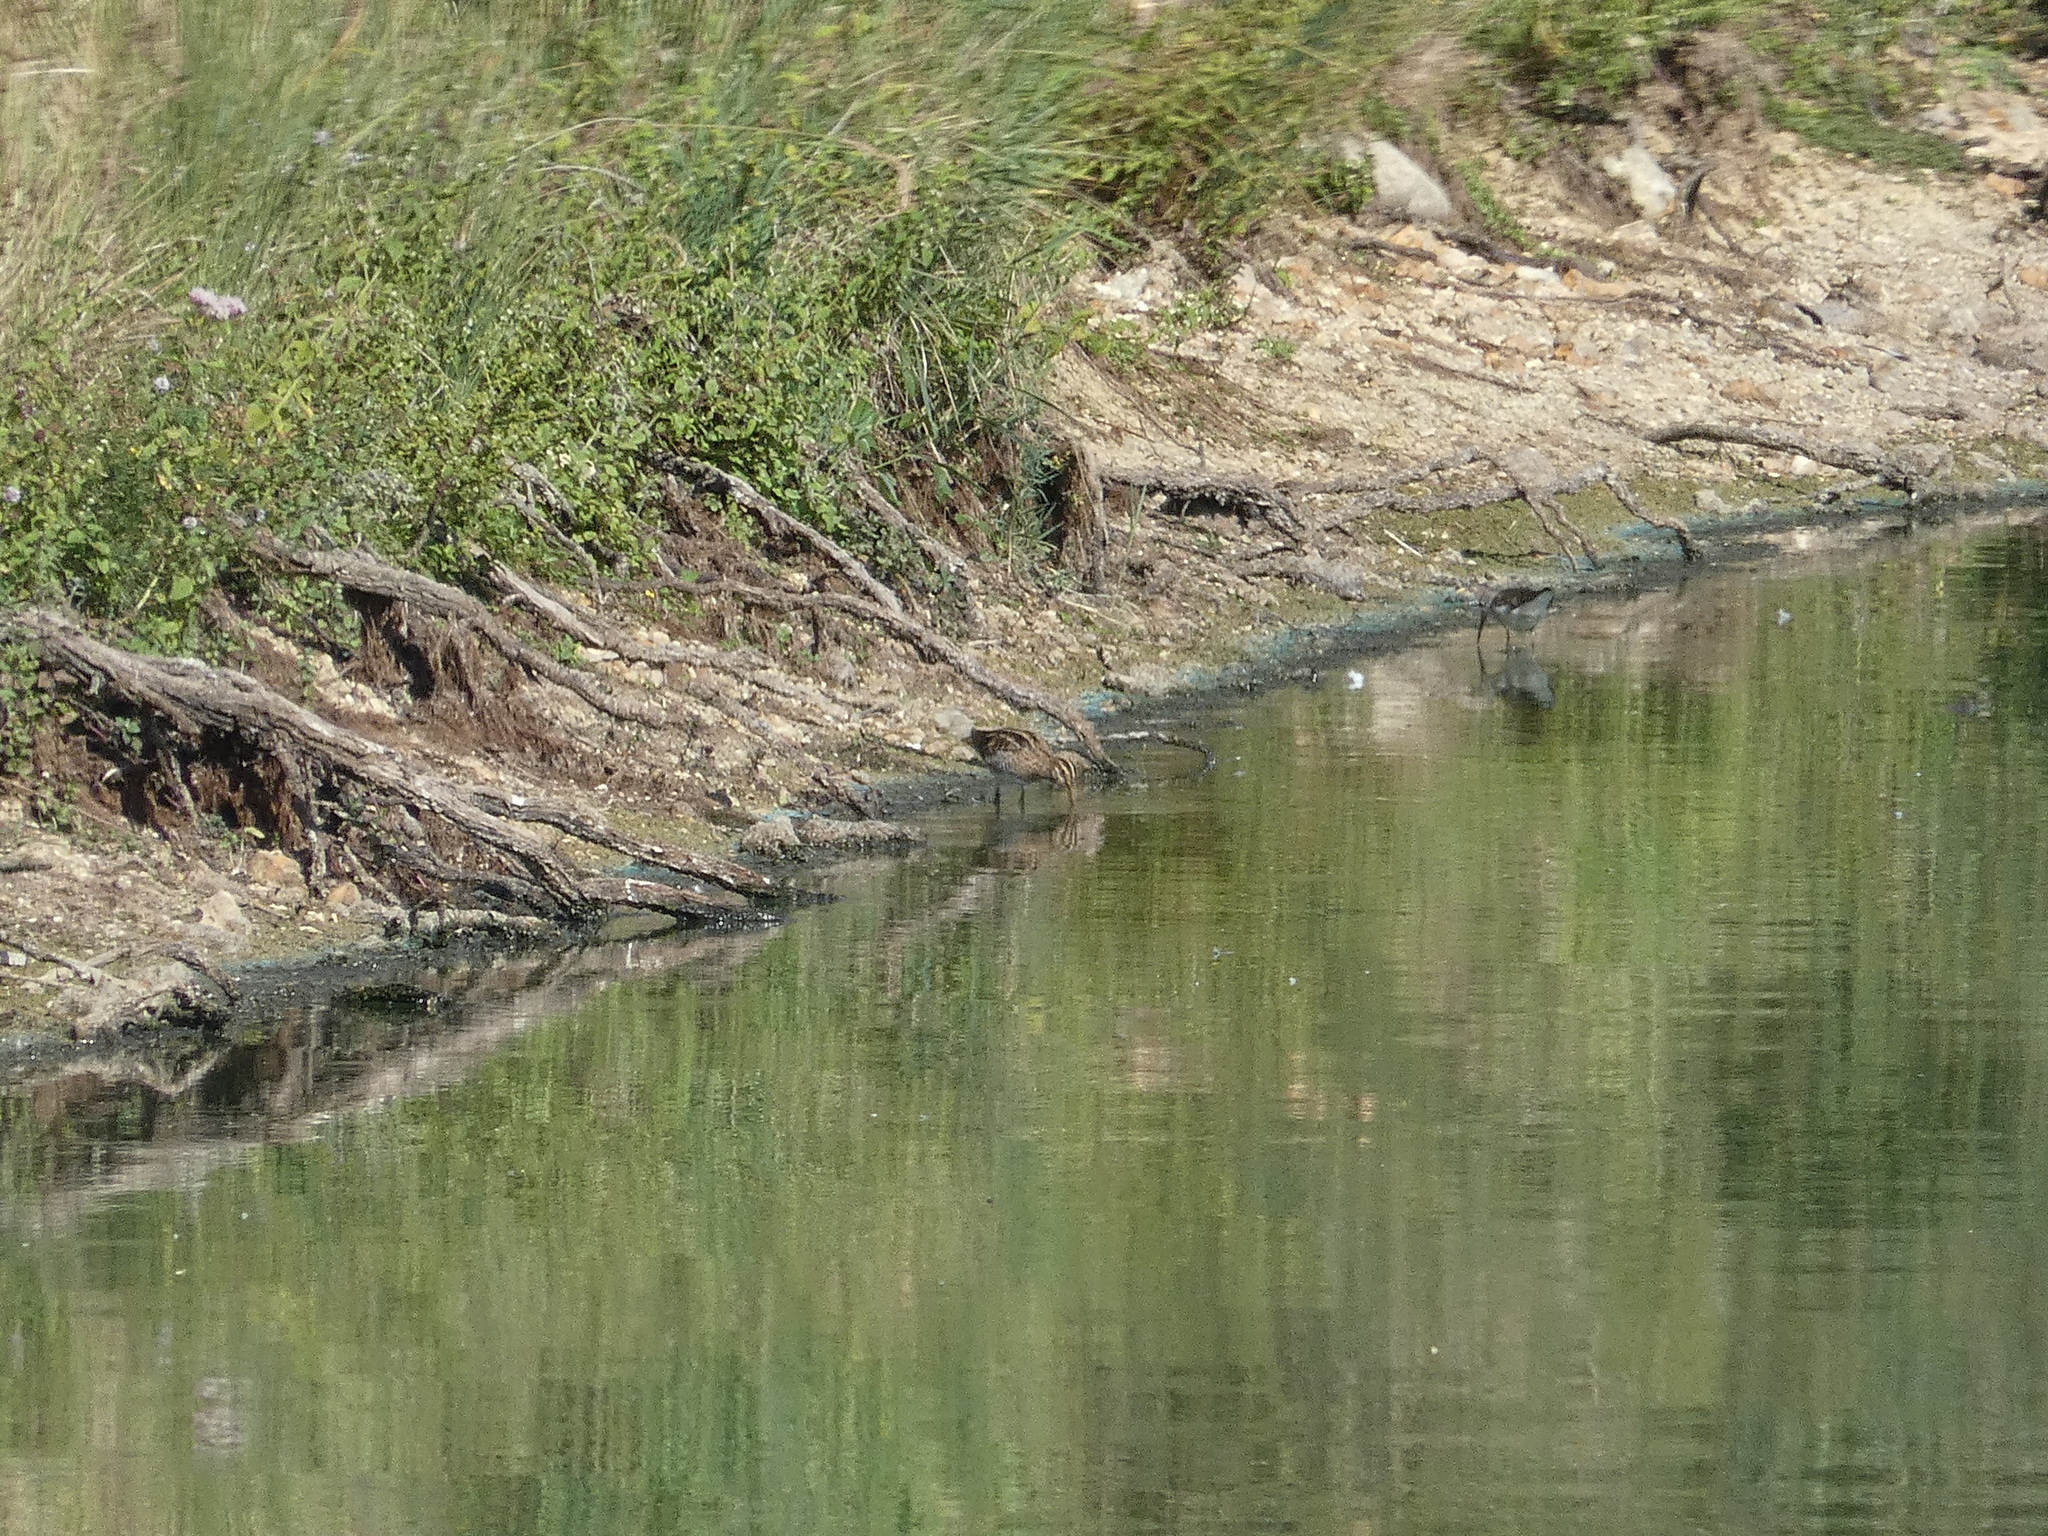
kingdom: Animalia
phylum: Chordata
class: Aves
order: Charadriiformes
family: Scolopacidae
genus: Gallinago
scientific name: Gallinago gallinago
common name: Common snipe
